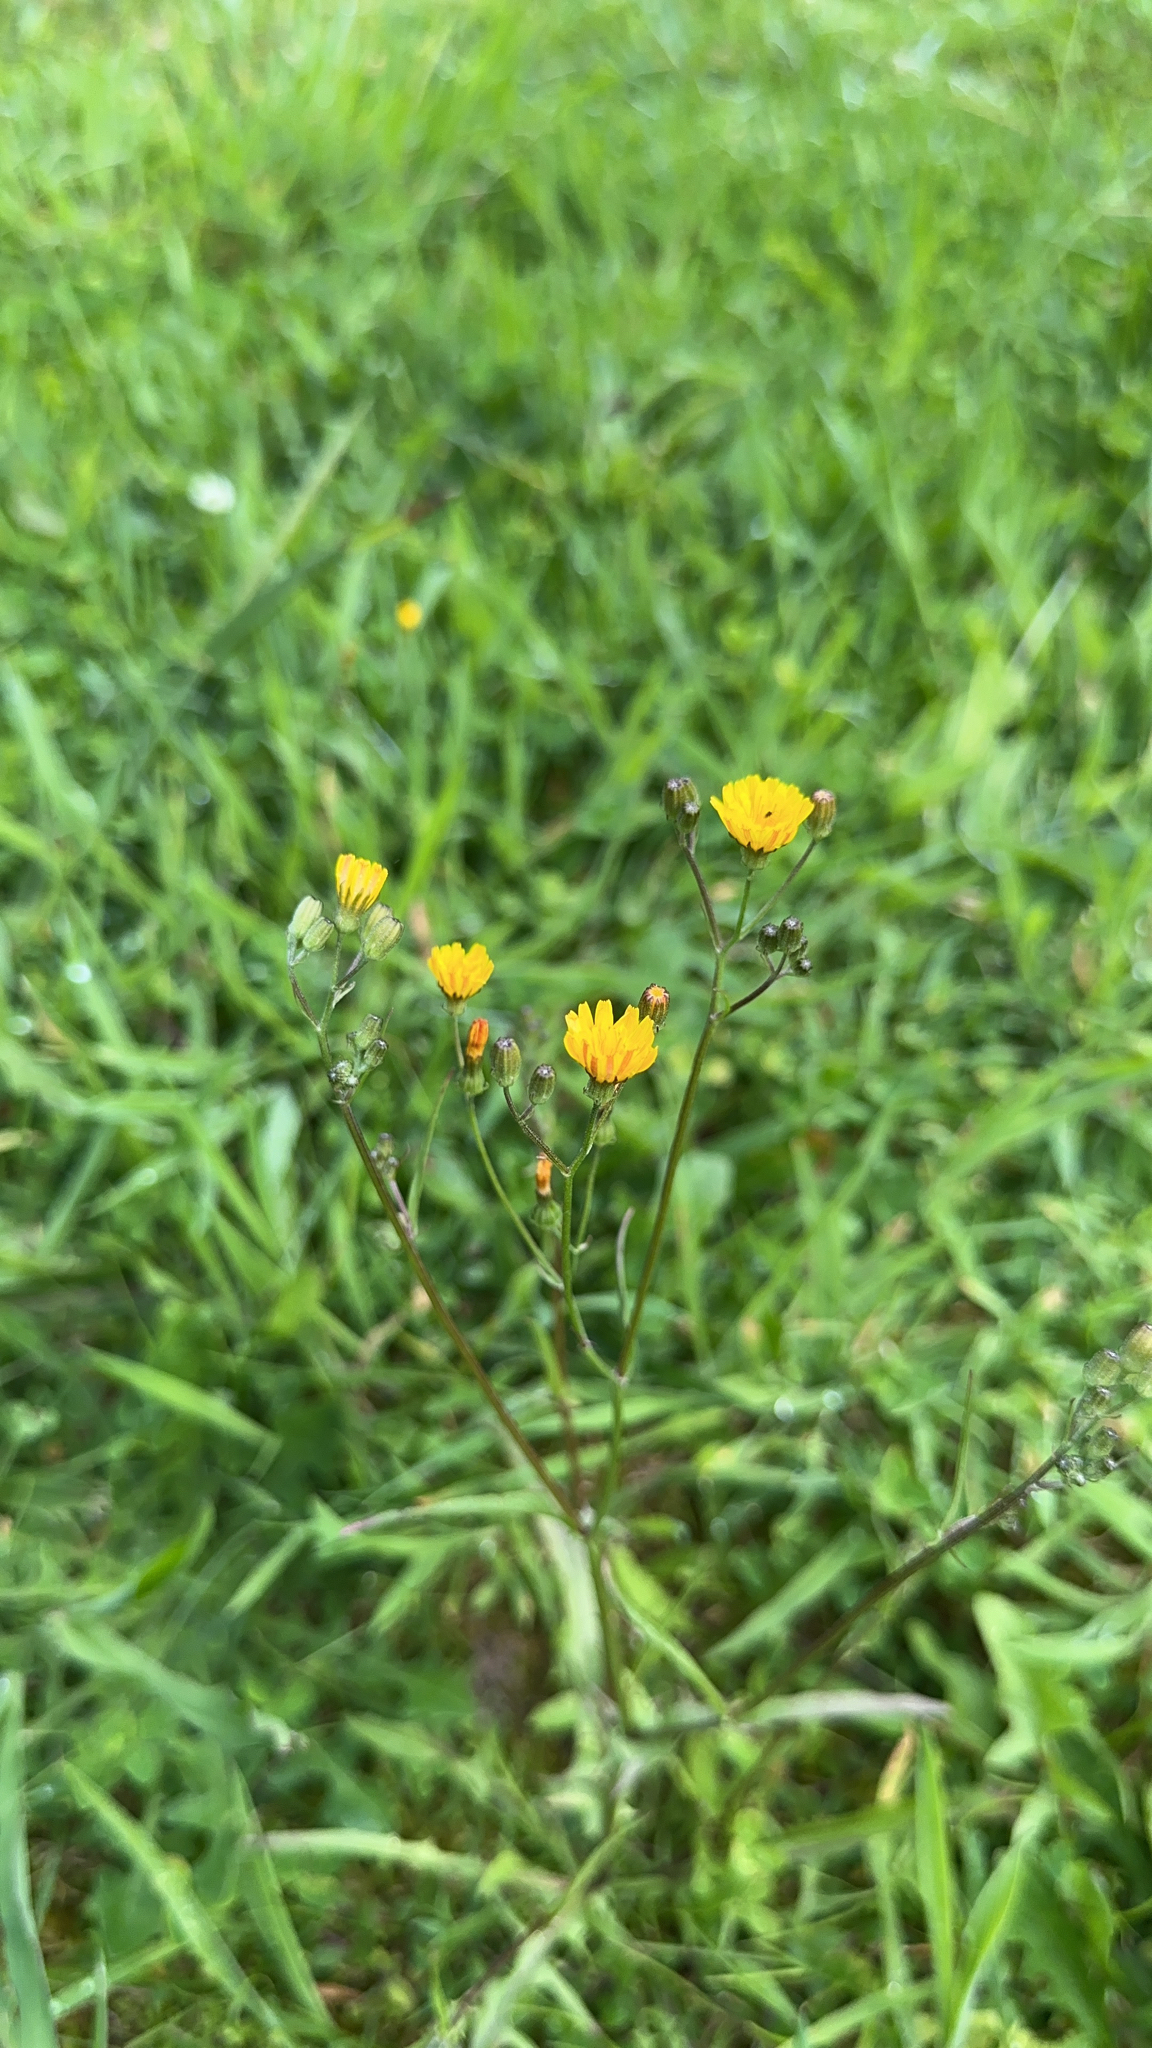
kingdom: Plantae
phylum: Tracheophyta
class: Magnoliopsida
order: Asterales
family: Asteraceae
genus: Crepis
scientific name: Crepis capillaris
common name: Smooth hawksbeard
